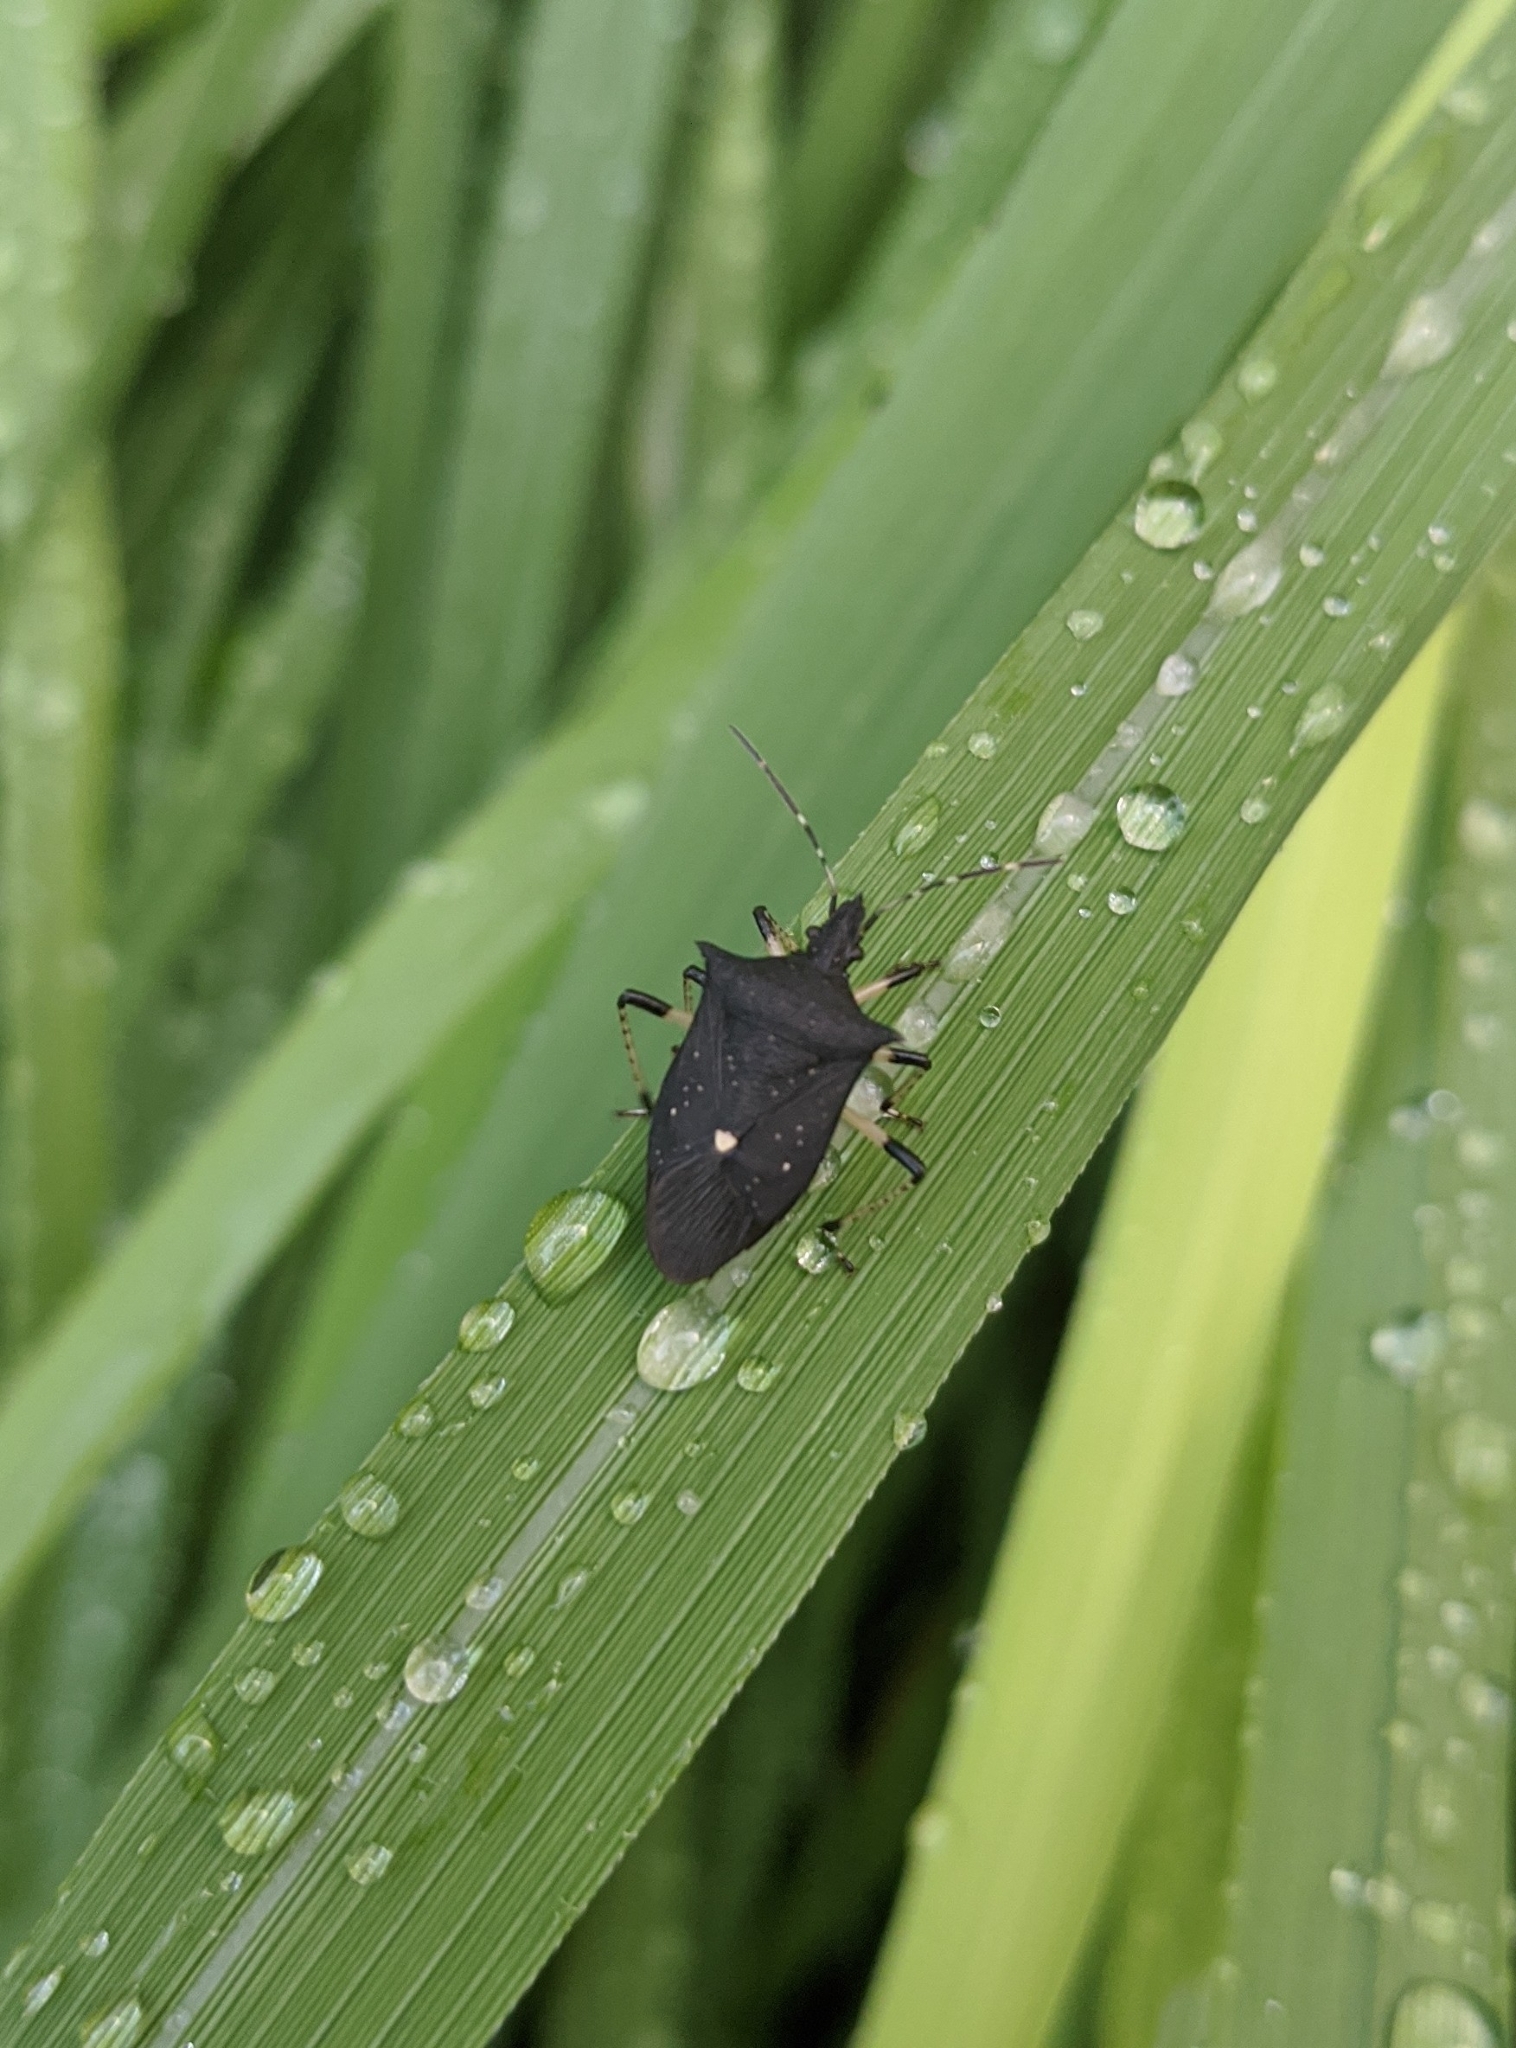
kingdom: Animalia
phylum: Arthropoda
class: Insecta
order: Hemiptera
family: Pentatomidae
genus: Proxys
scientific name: Proxys punctulatus
